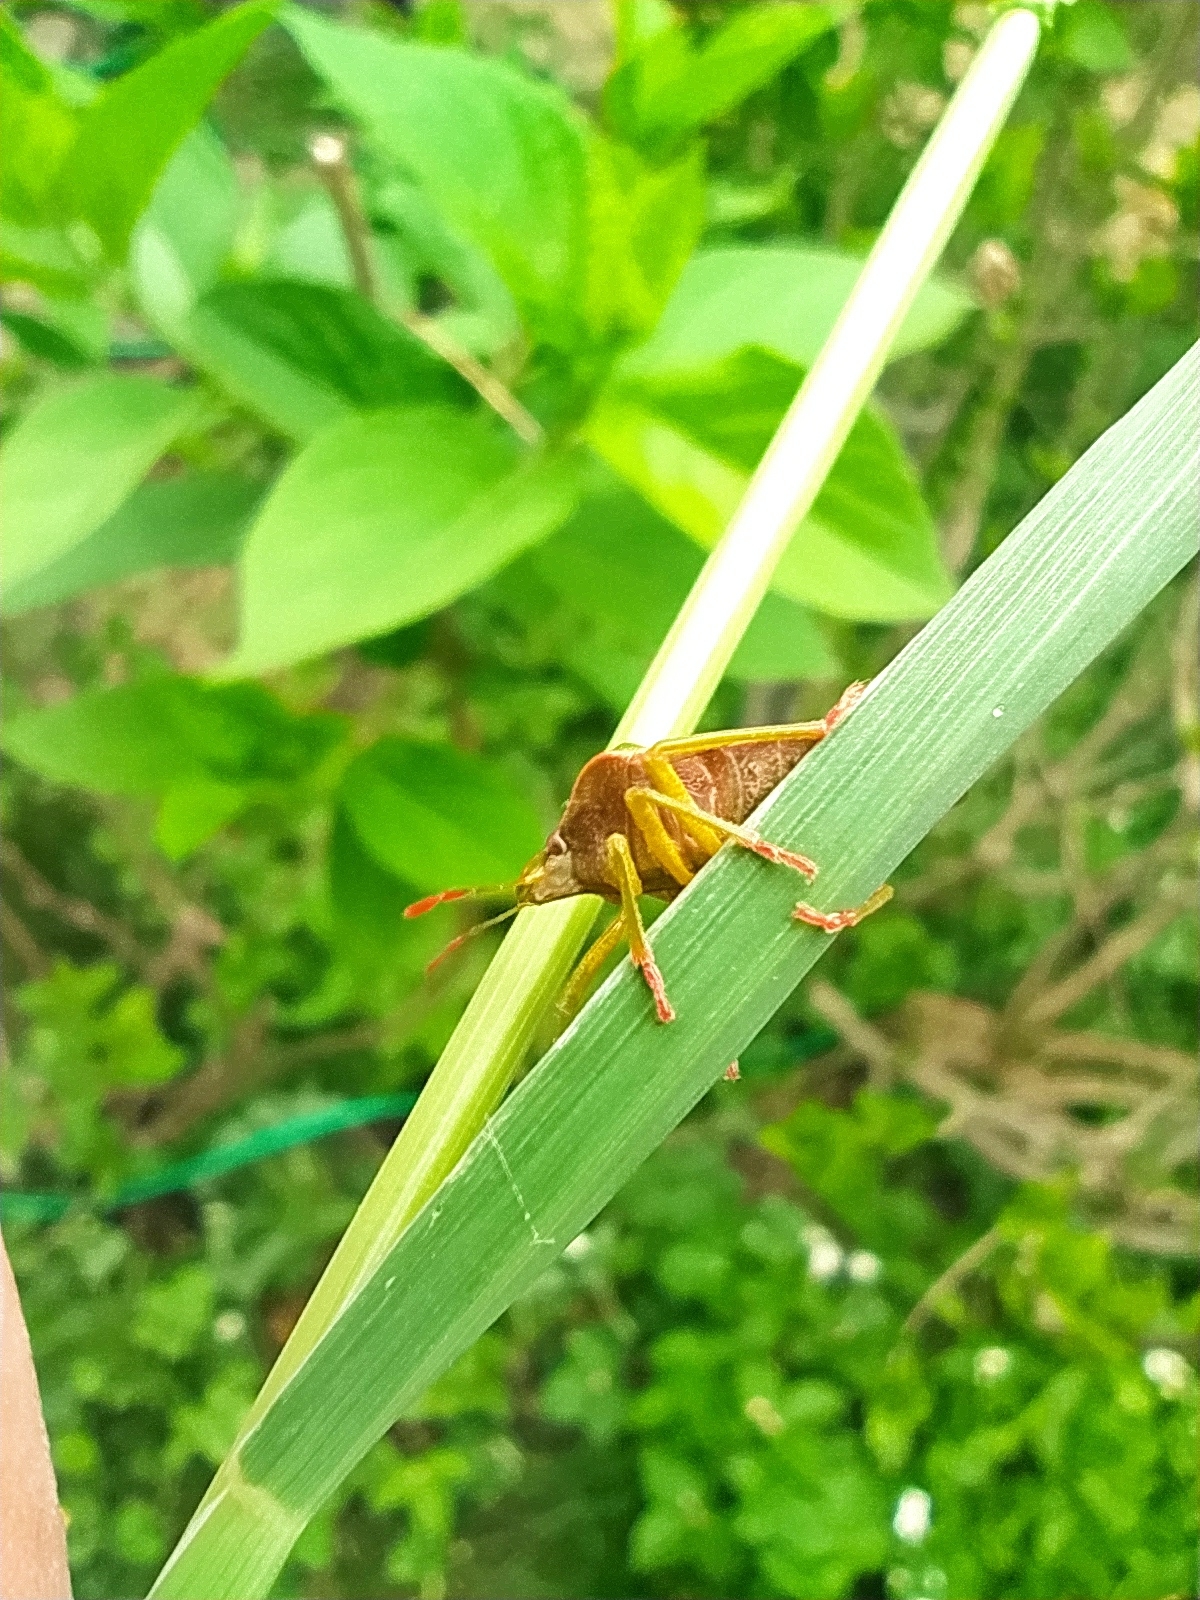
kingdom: Animalia
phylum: Arthropoda
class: Insecta
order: Hemiptera
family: Pentatomidae
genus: Palomena
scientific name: Palomena prasina
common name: Green shieldbug
